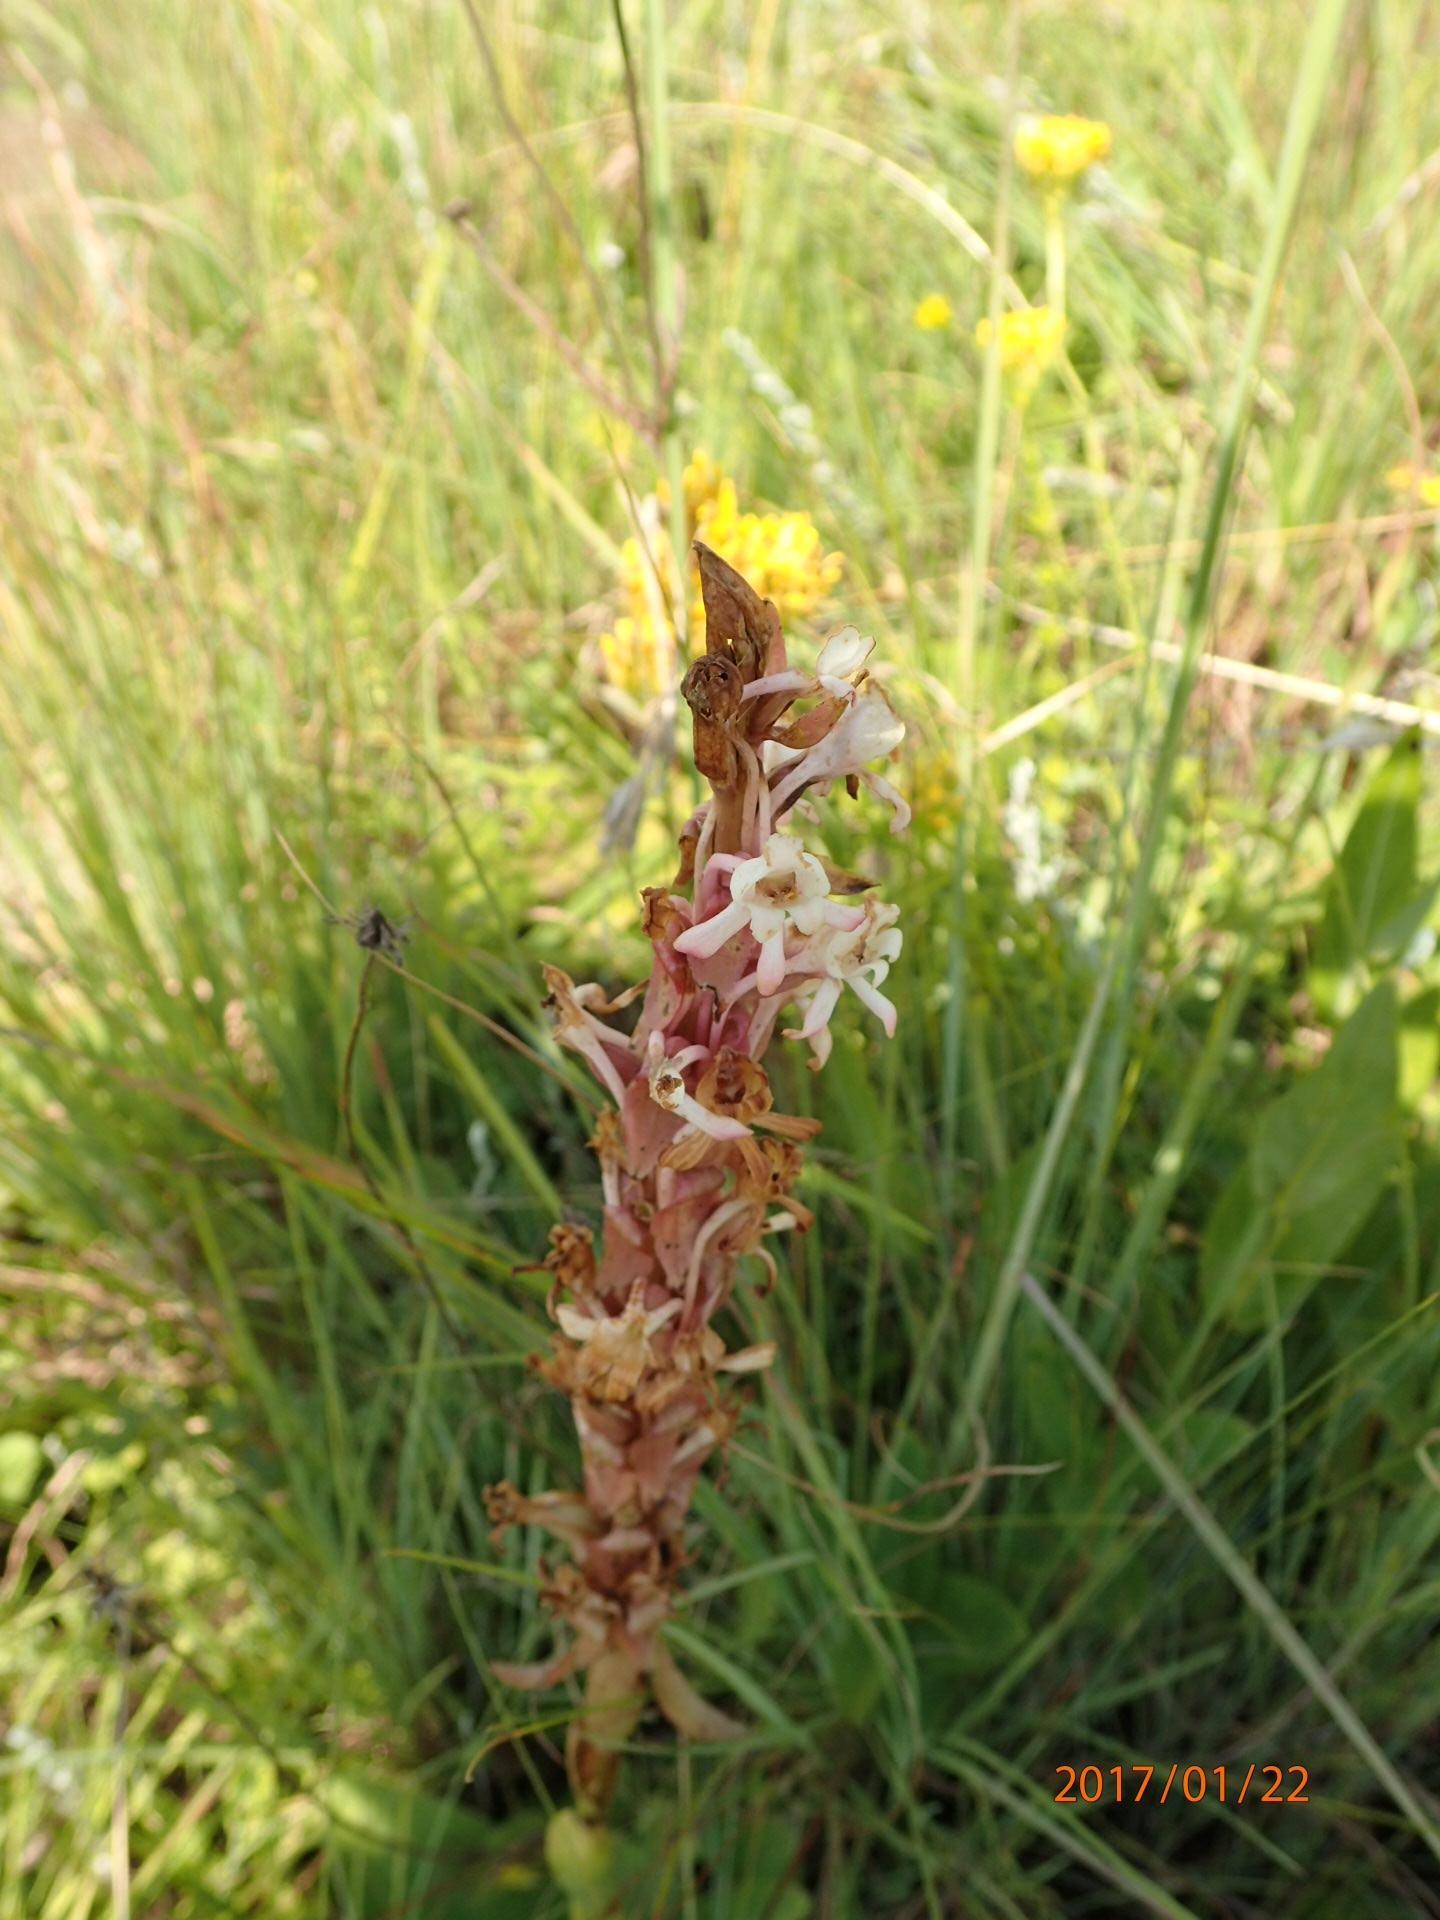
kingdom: Plantae
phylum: Tracheophyta
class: Liliopsida
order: Asparagales
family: Orchidaceae
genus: Satyrium
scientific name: Satyrium longicauda
